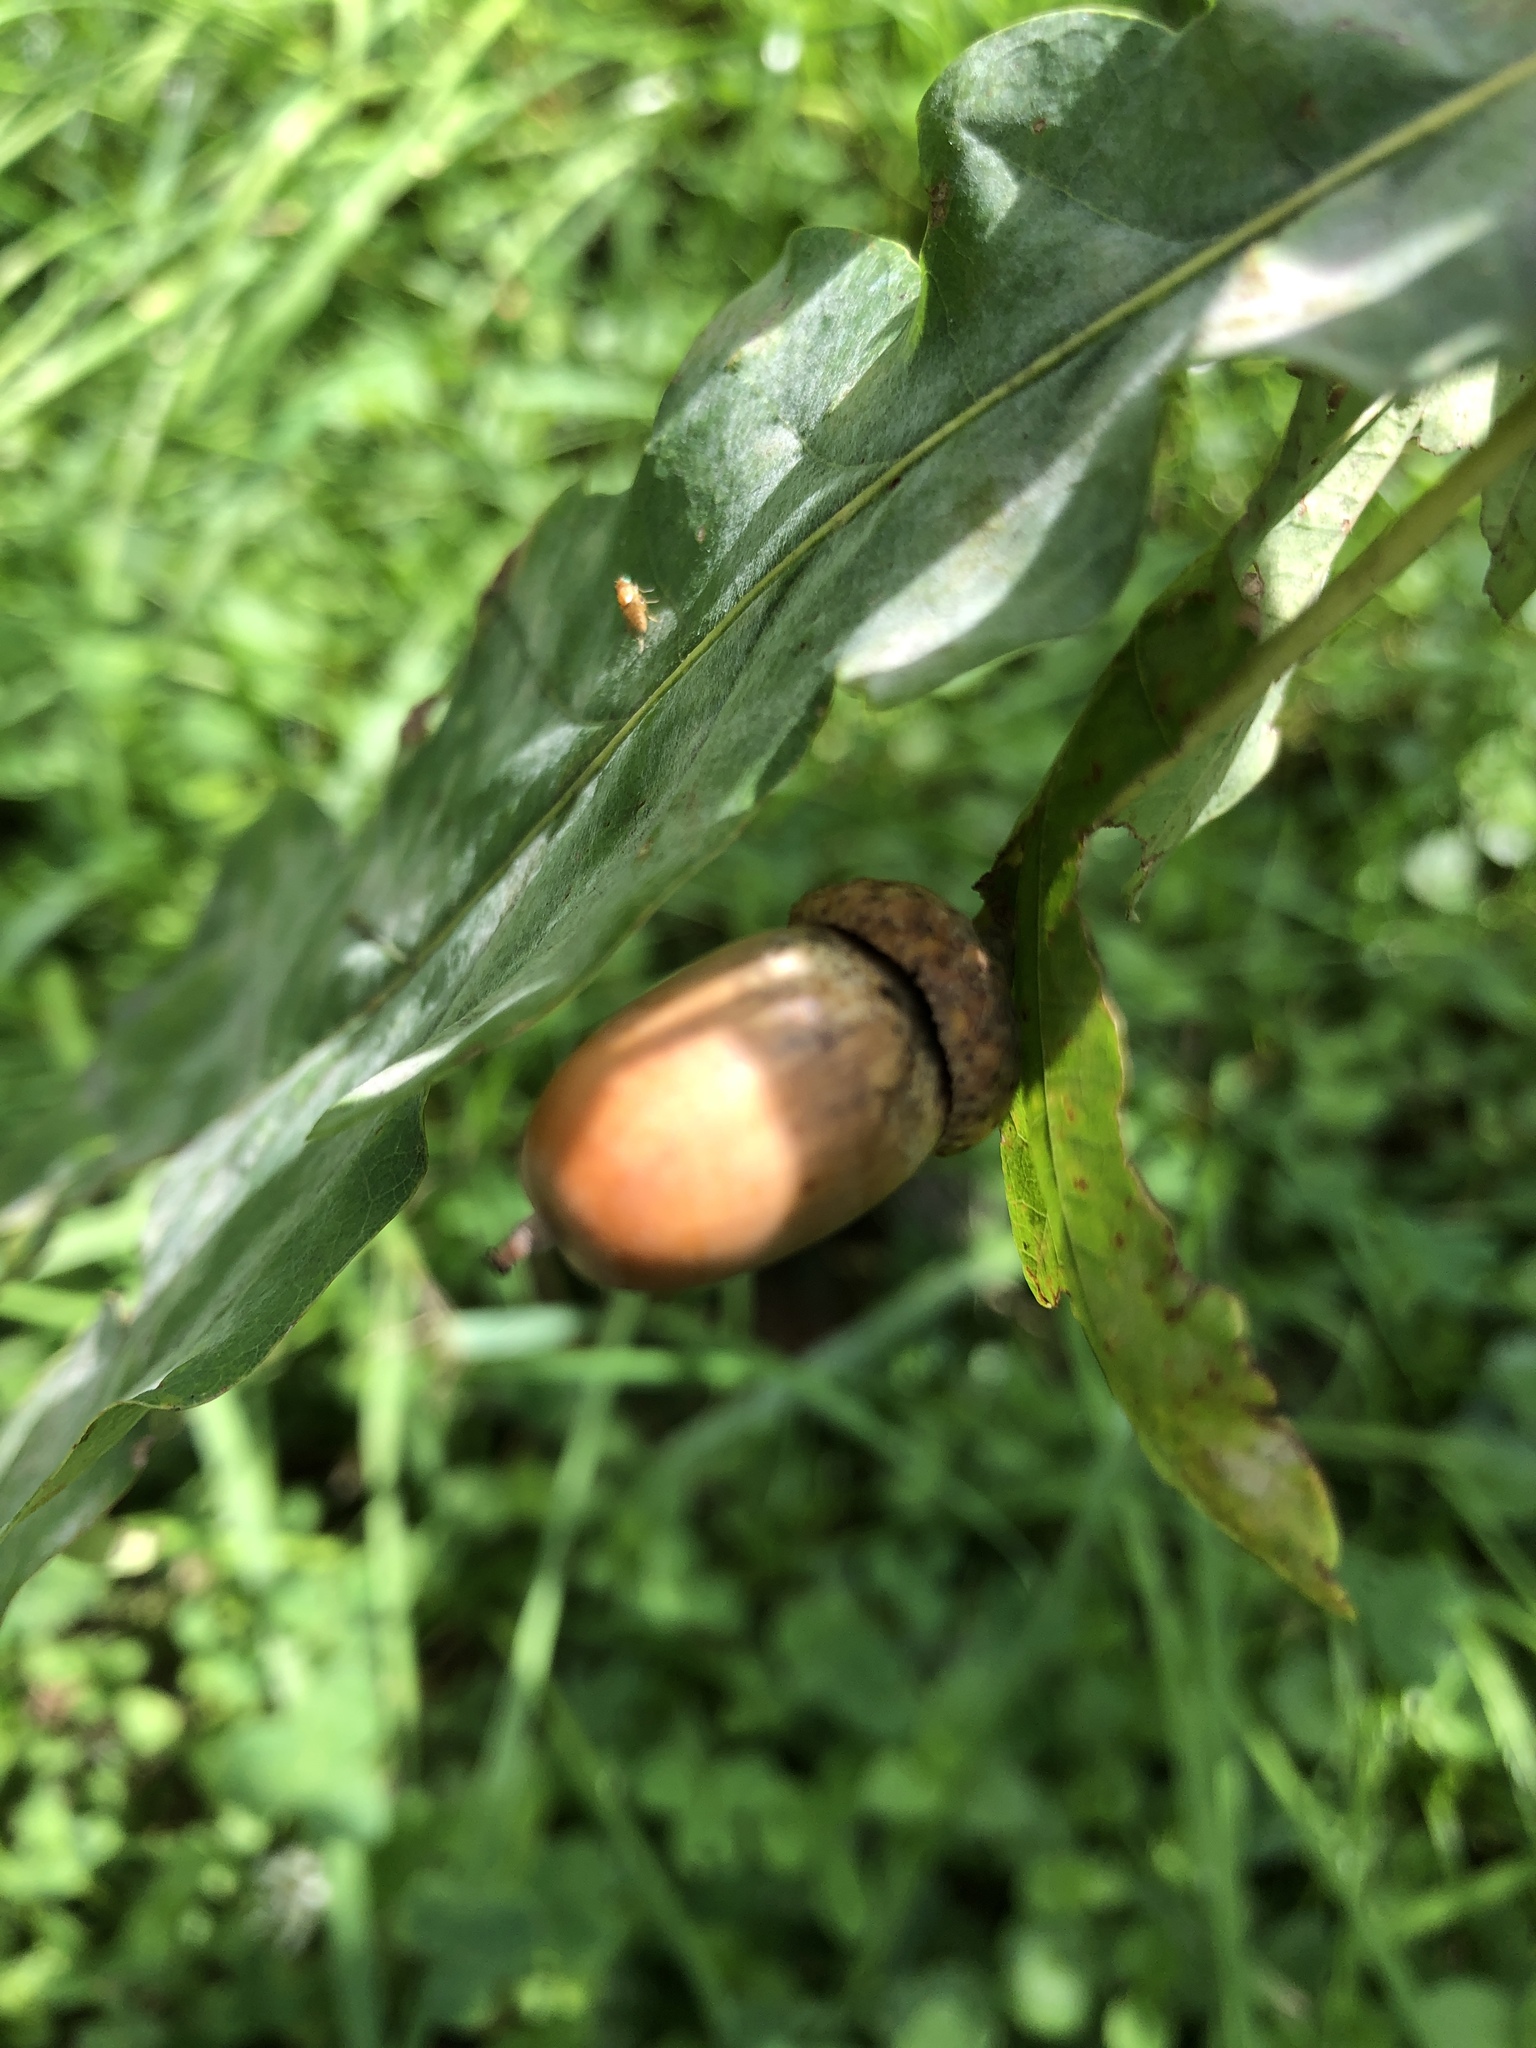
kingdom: Plantae
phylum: Tracheophyta
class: Magnoliopsida
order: Fagales
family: Fagaceae
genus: Quercus
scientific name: Quercus robur
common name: Pedunculate oak
